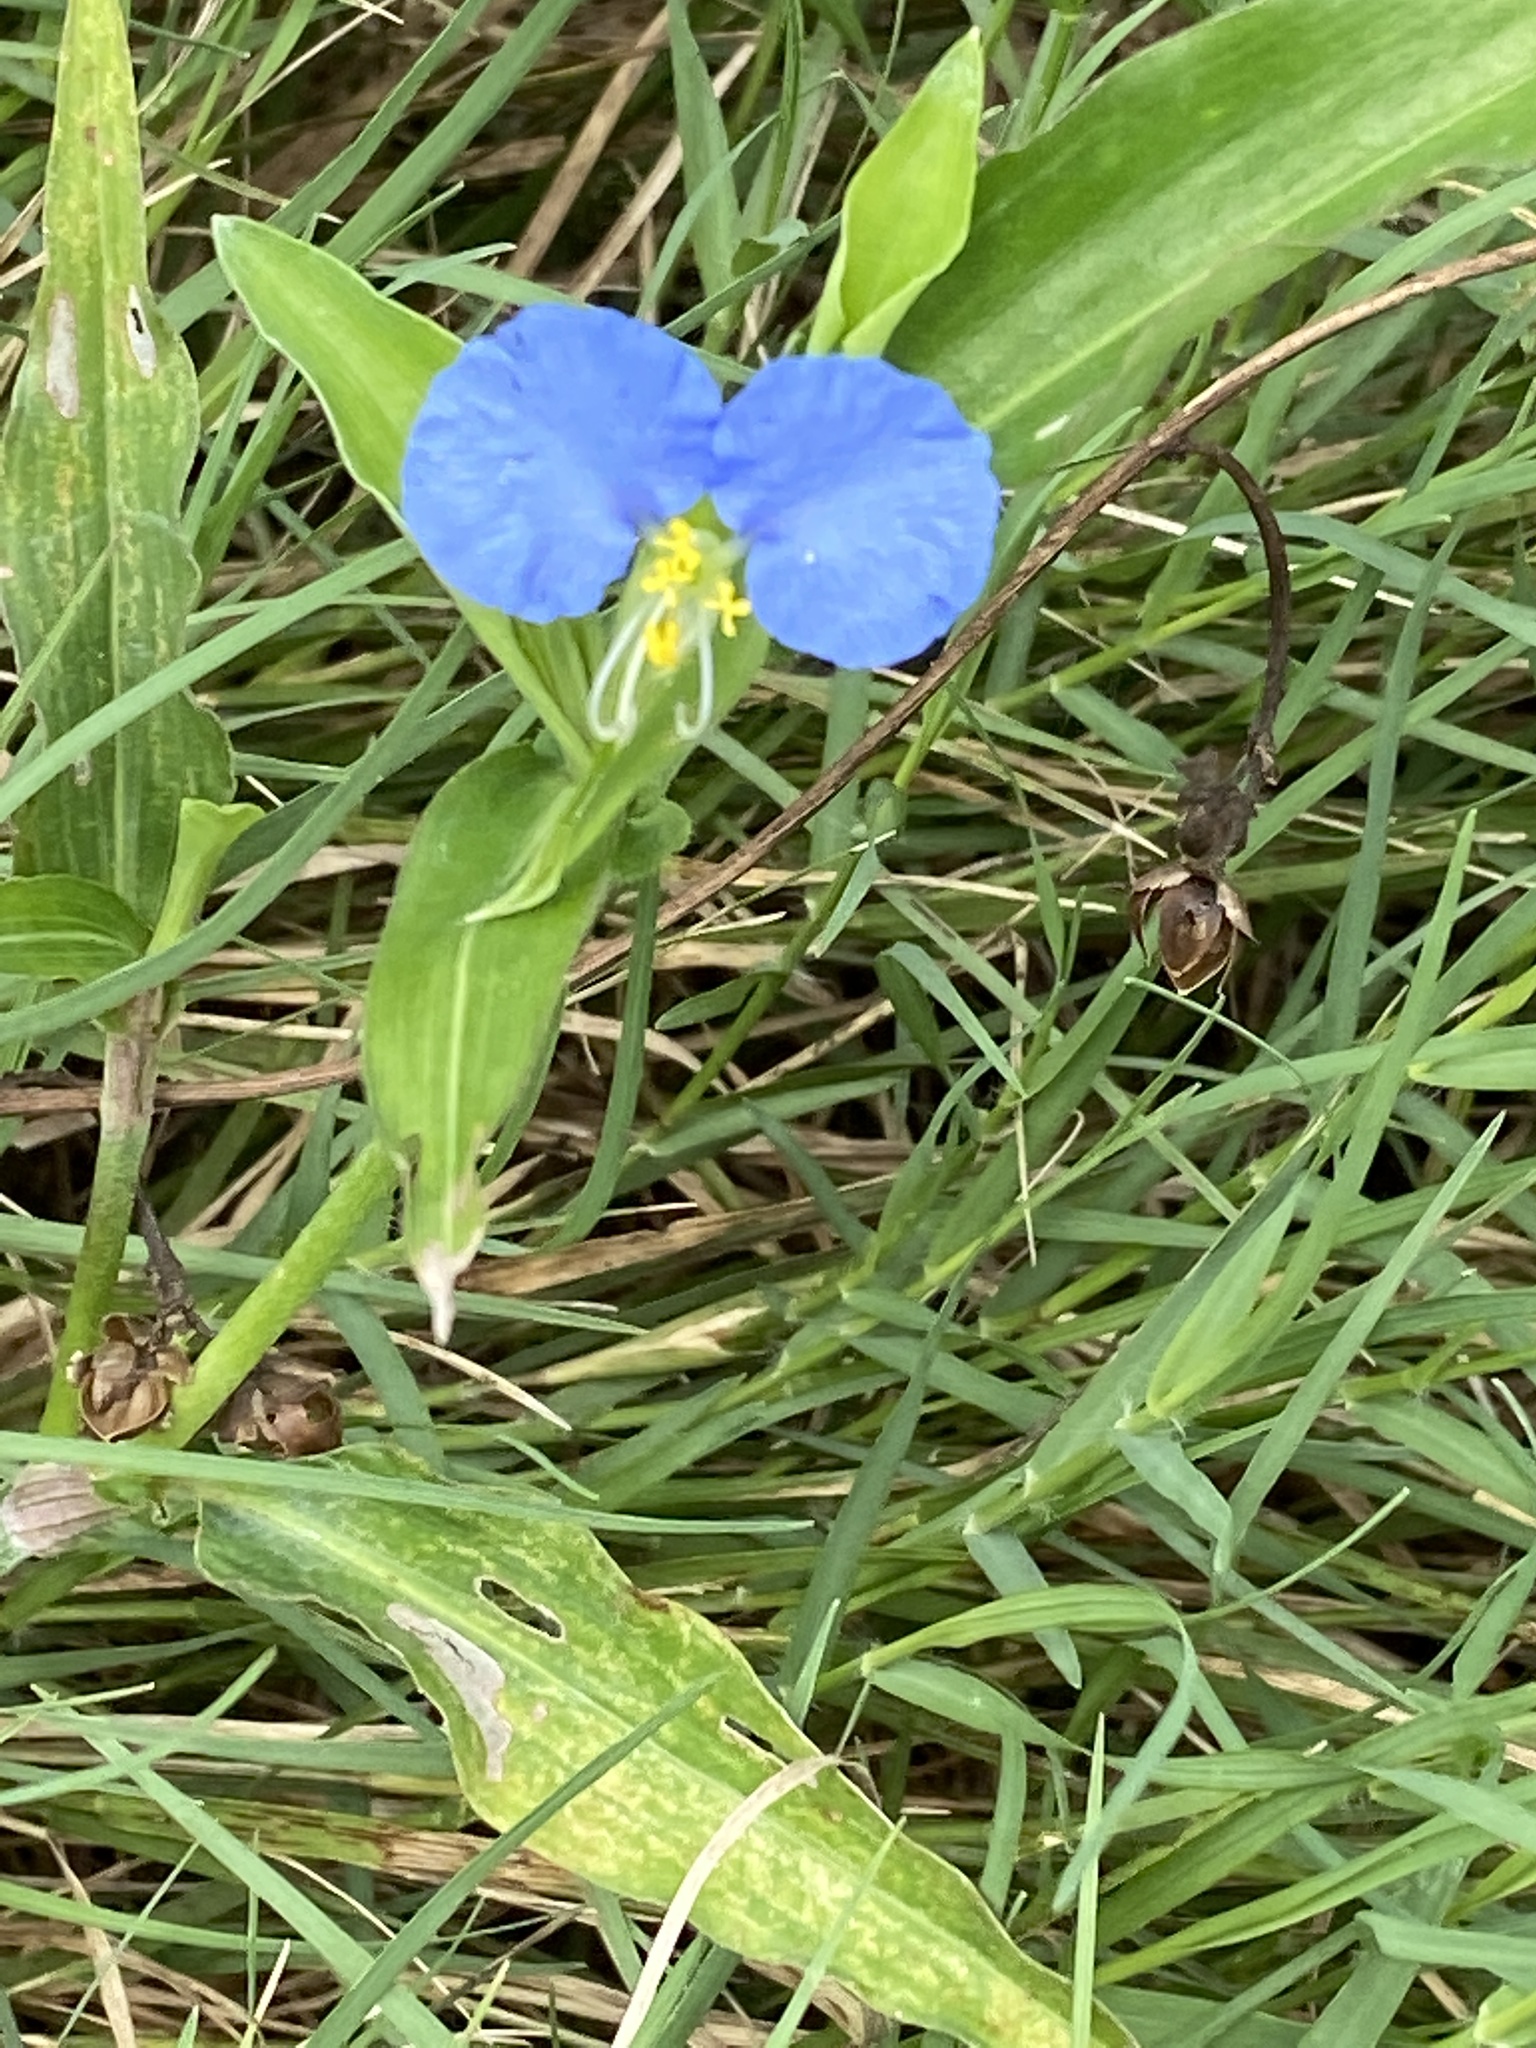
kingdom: Plantae
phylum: Tracheophyta
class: Liliopsida
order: Commelinales
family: Commelinaceae
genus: Commelina
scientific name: Commelina erecta
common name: Blousel blommetjie
